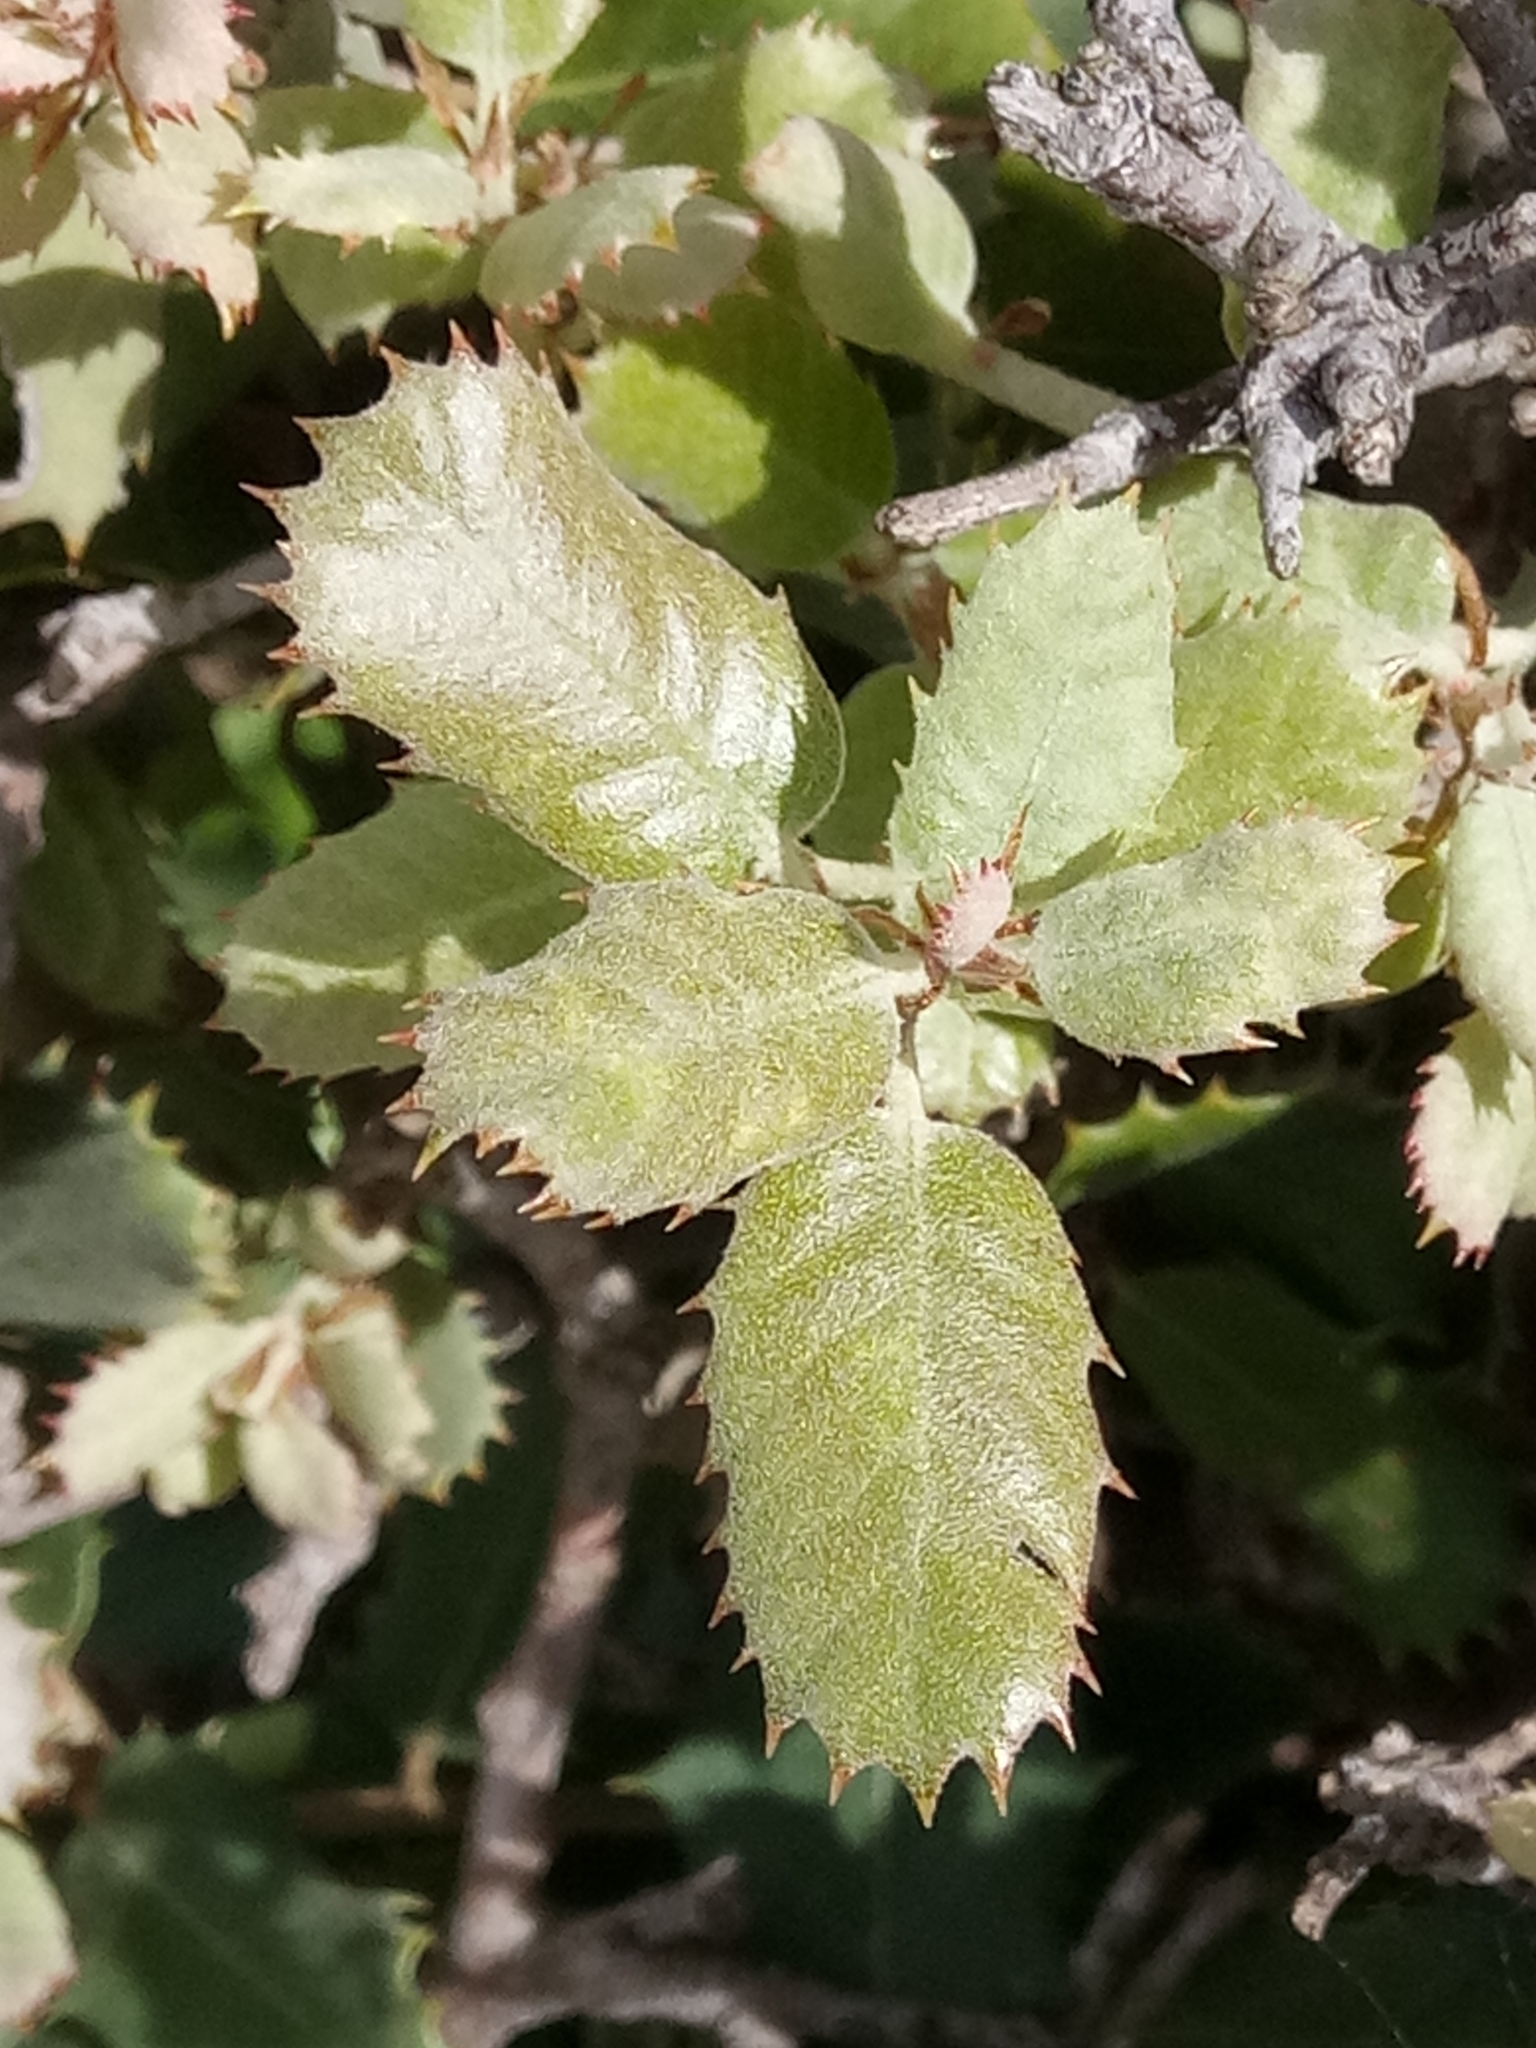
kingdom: Plantae
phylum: Tracheophyta
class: Magnoliopsida
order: Fagales
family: Fagaceae
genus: Quercus
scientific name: Quercus rotundifolia
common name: Holm oak
